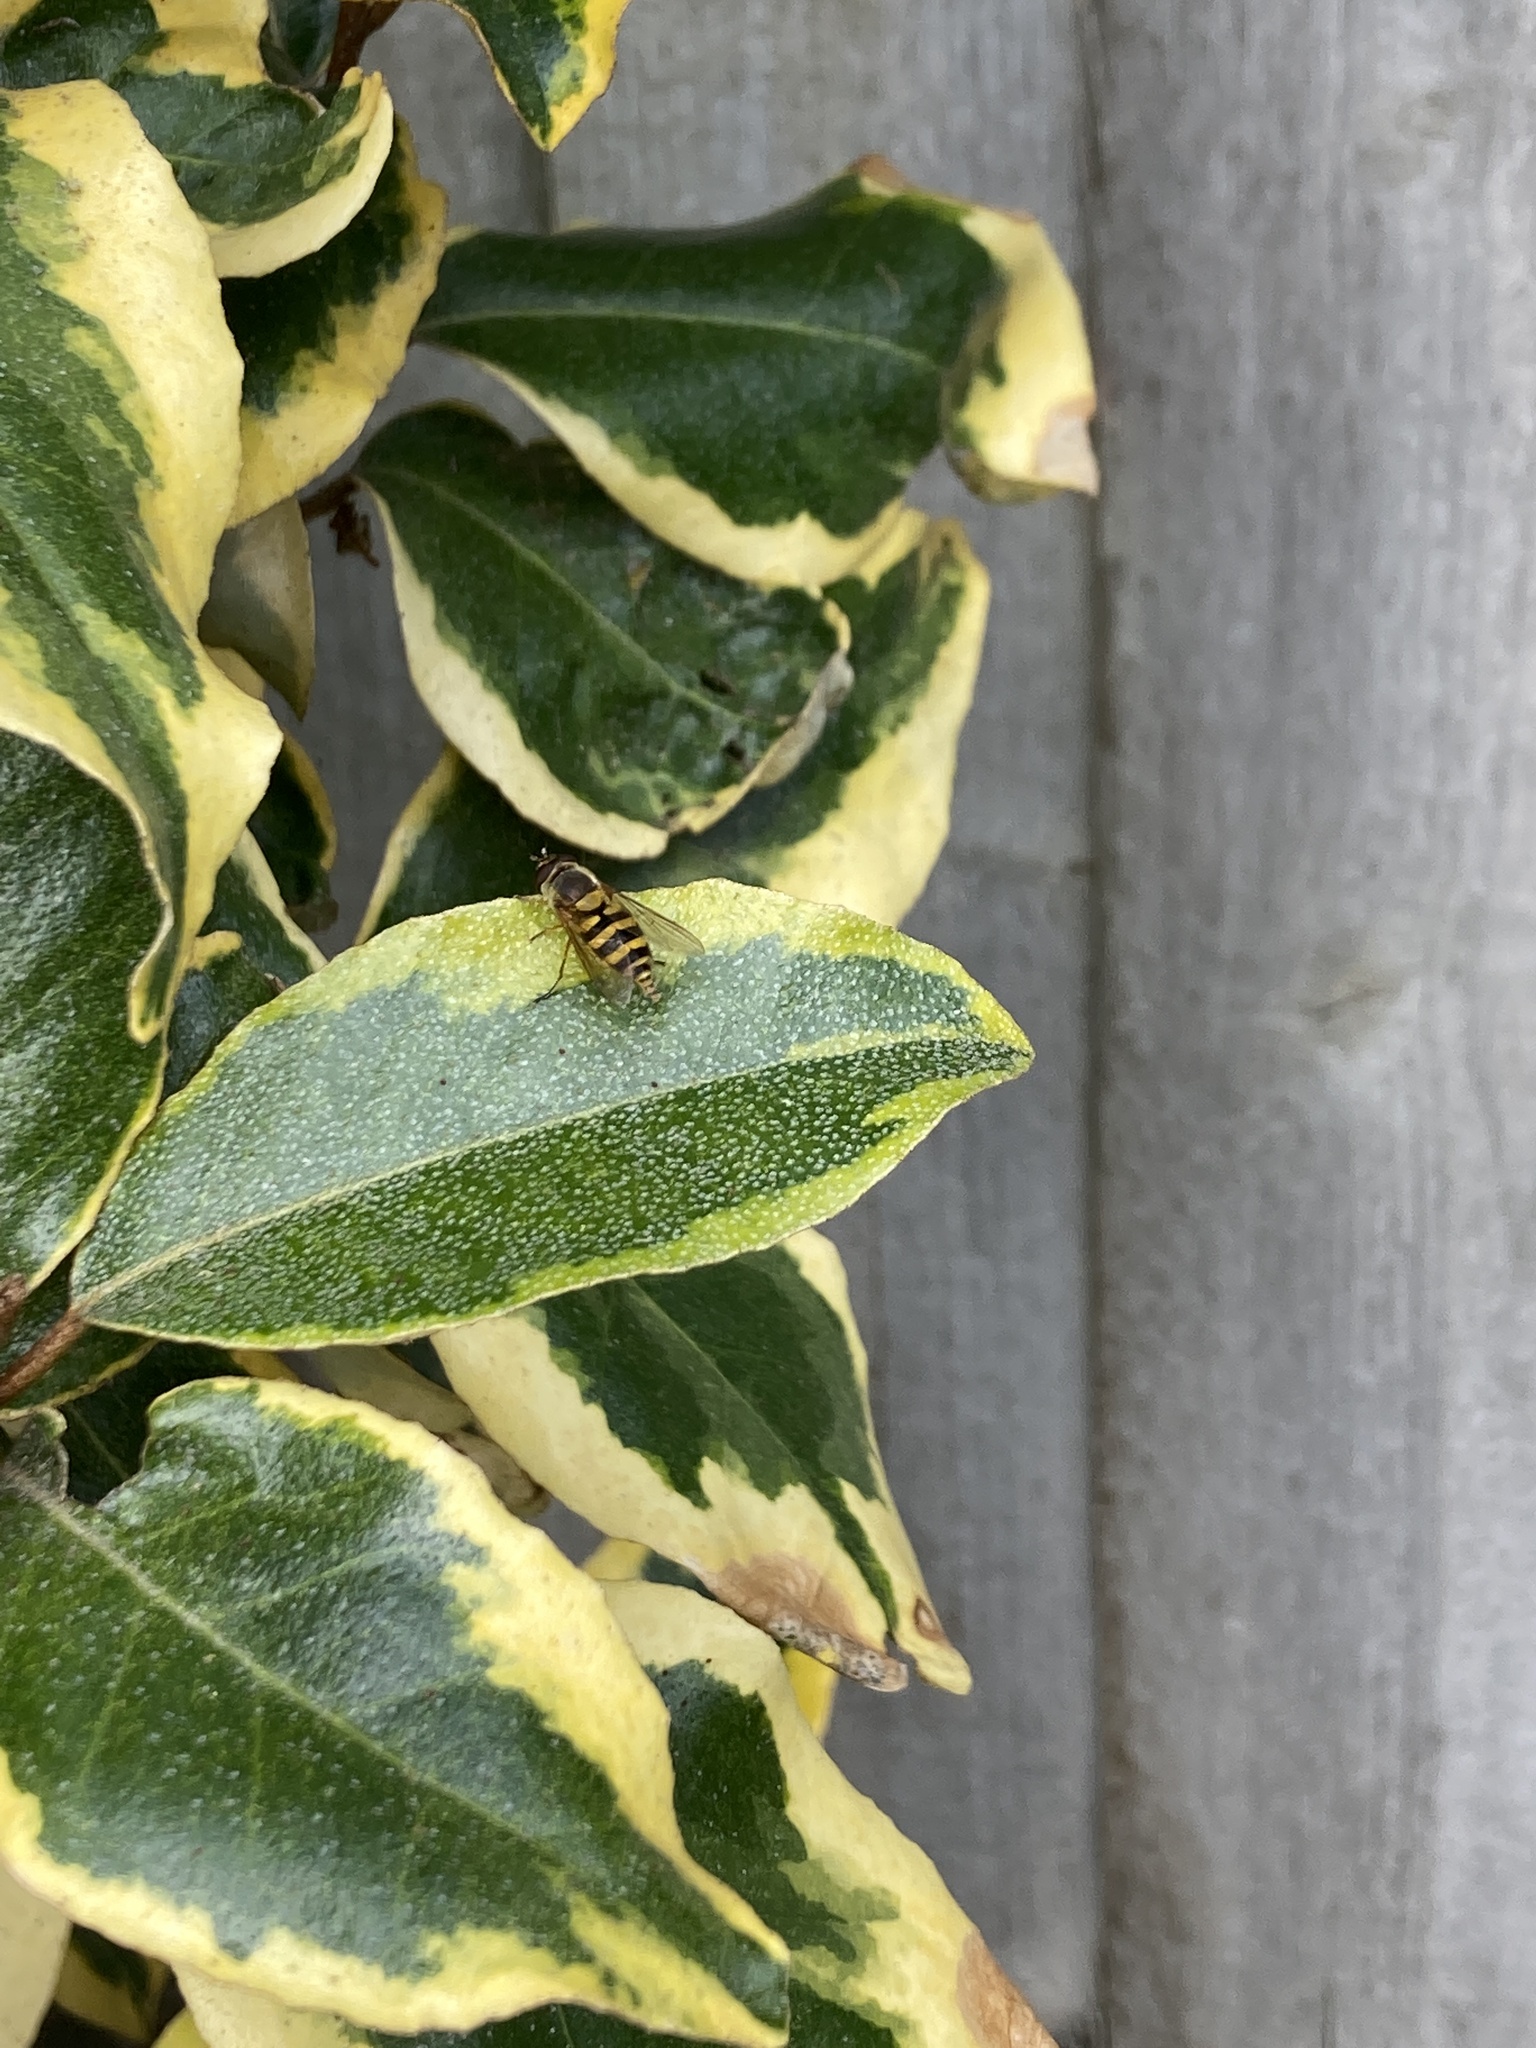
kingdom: Animalia
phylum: Arthropoda
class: Insecta
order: Diptera
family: Syrphidae
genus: Syrphus
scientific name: Syrphus
